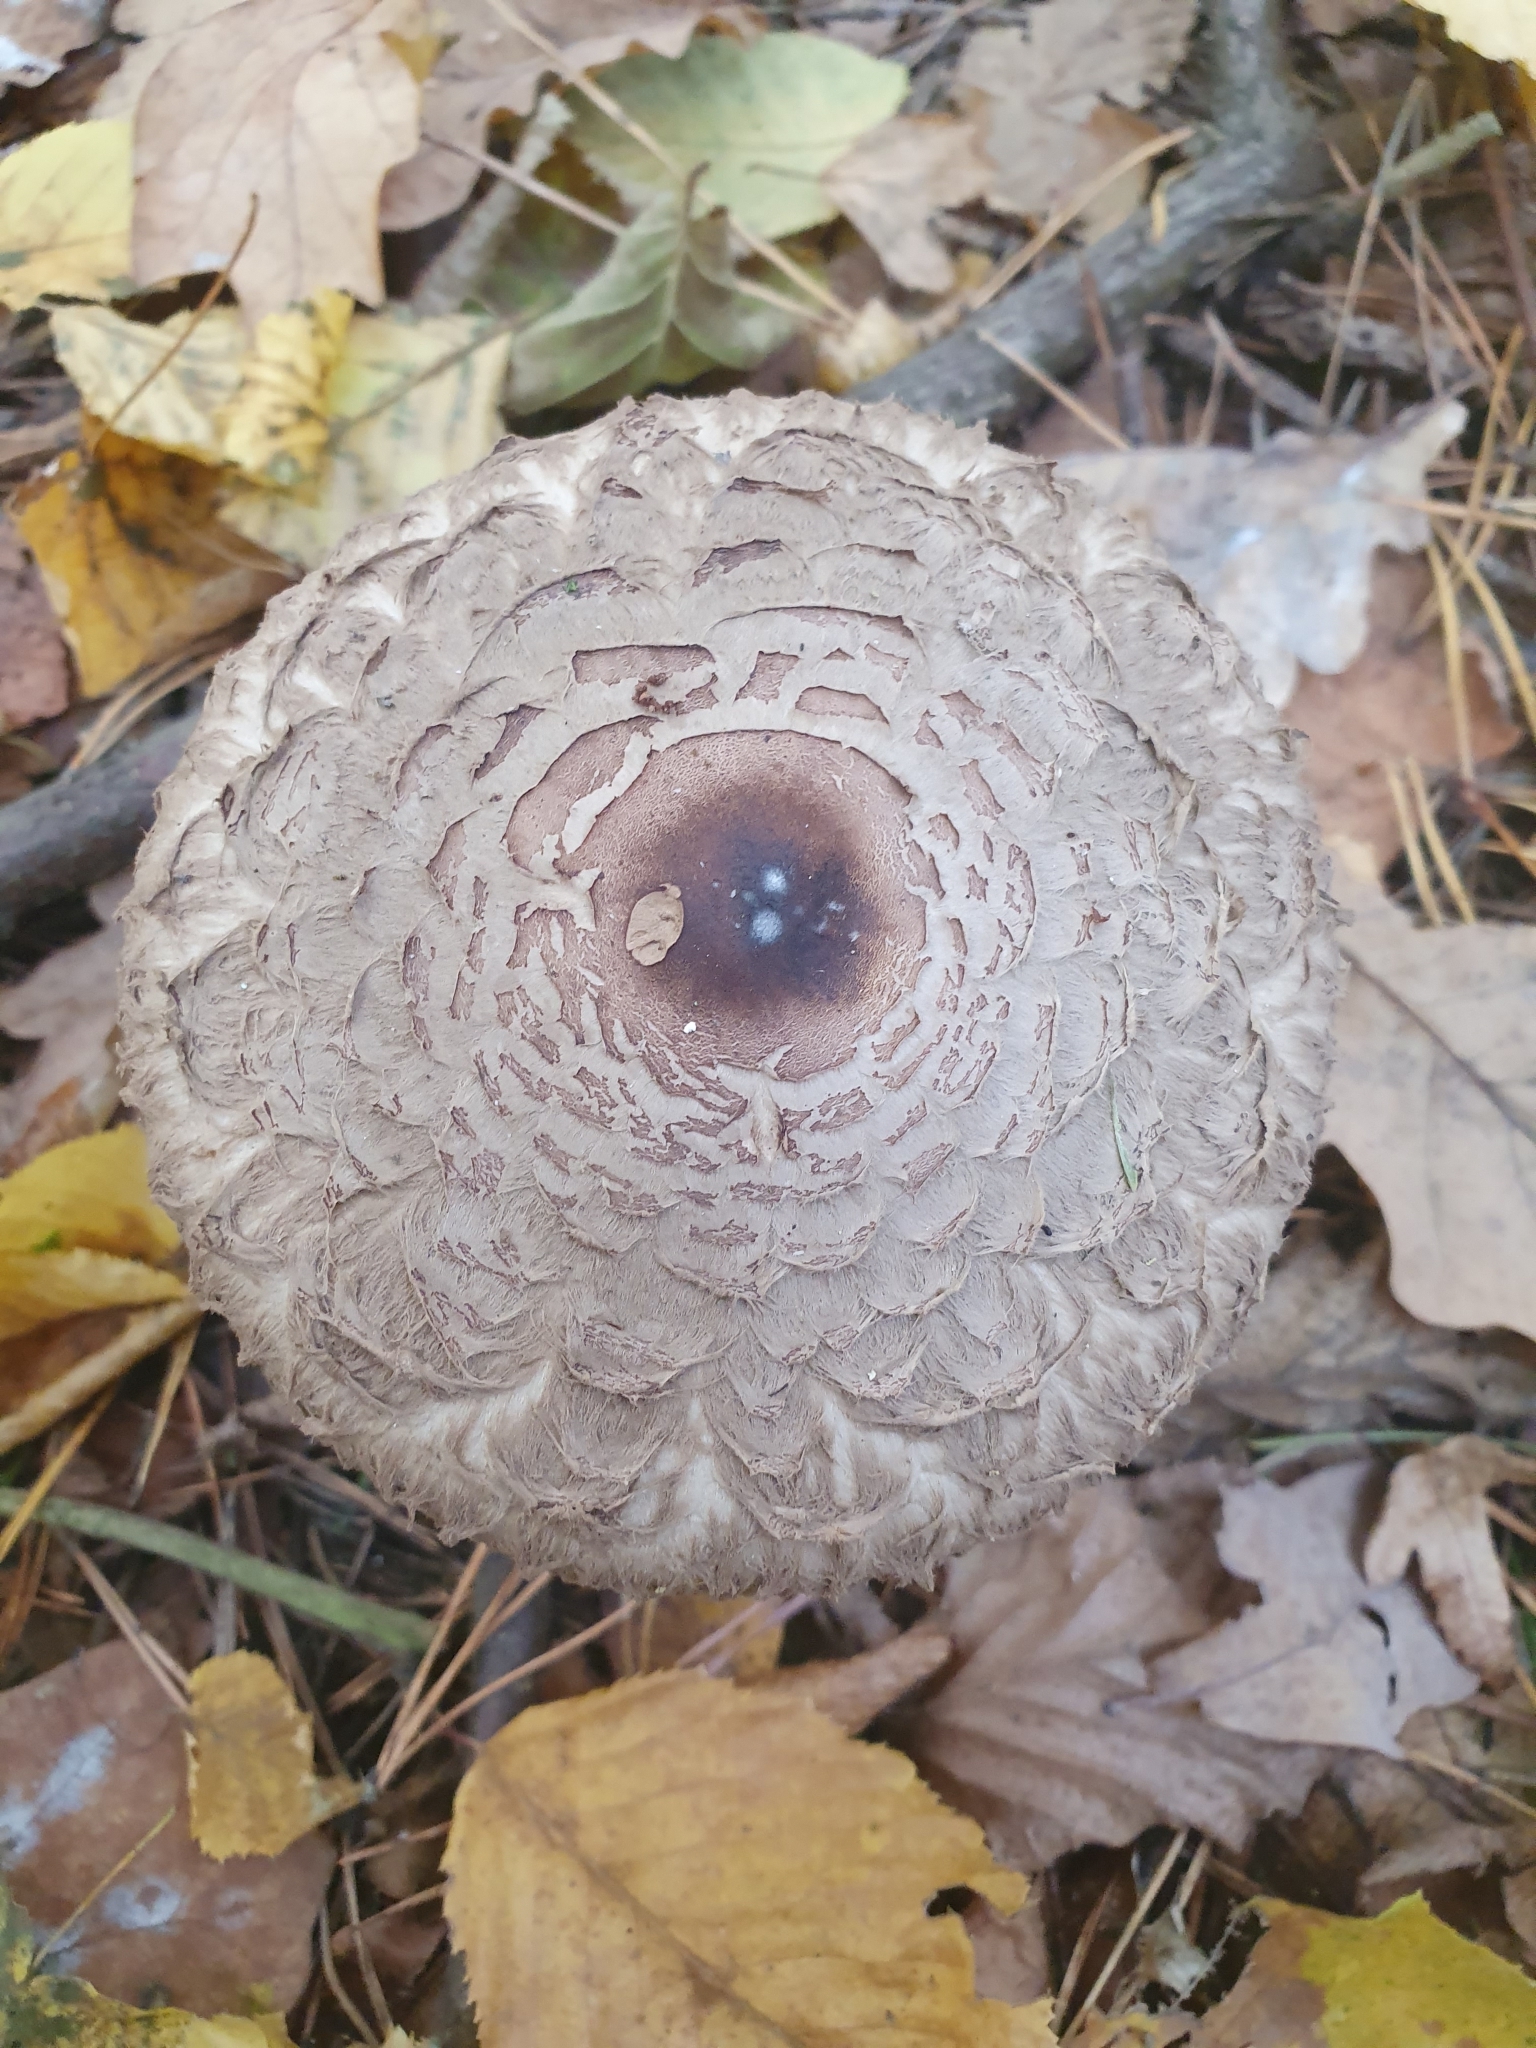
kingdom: Fungi
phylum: Basidiomycota
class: Agaricomycetes
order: Agaricales
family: Agaricaceae
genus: Chlorophyllum
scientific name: Chlorophyllum olivieri
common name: Conifer parasol
